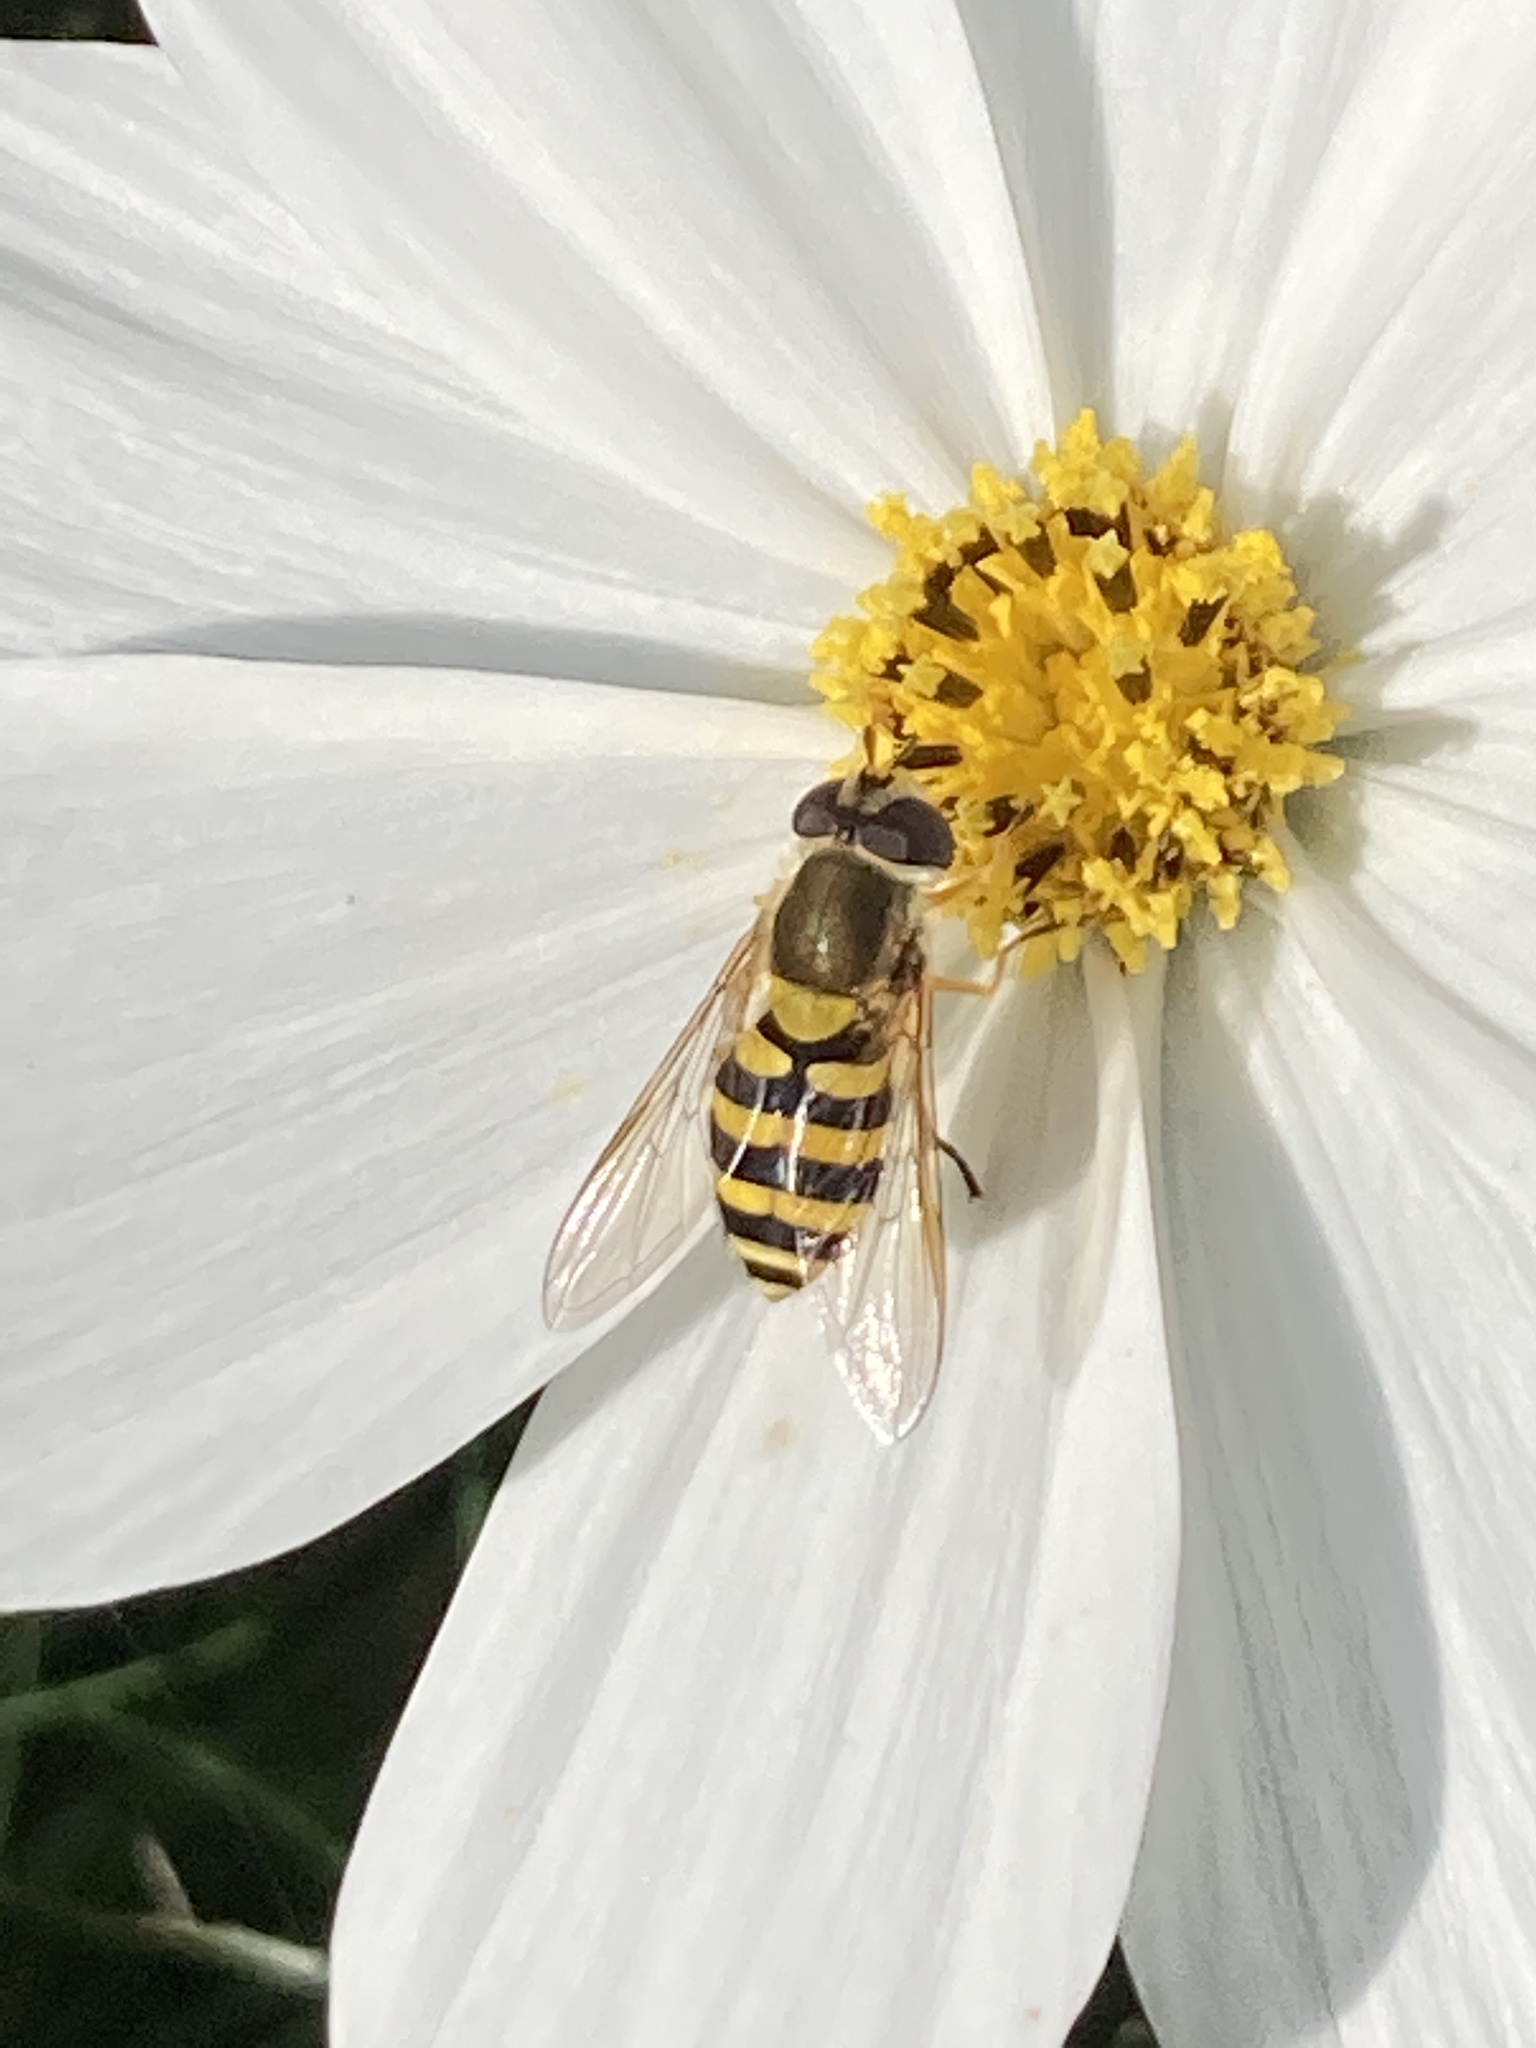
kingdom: Animalia
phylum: Arthropoda
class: Insecta
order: Diptera
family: Syrphidae
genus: Syrphus
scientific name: Syrphus
